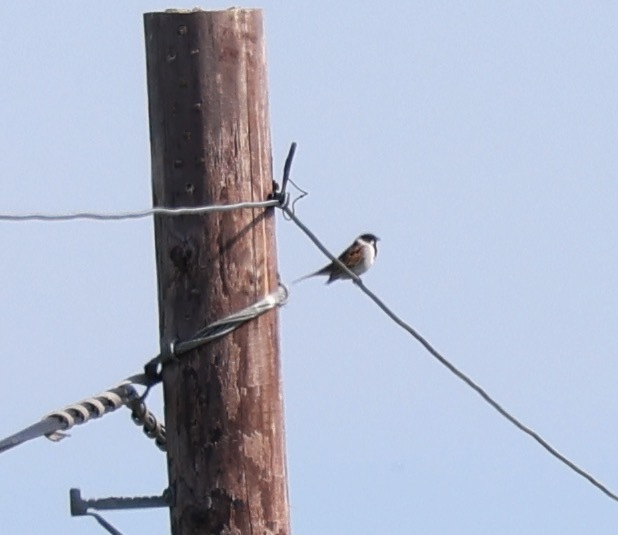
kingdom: Animalia
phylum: Chordata
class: Aves
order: Passeriformes
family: Emberizidae
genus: Emberiza
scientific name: Emberiza schoeniclus
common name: Reed bunting
